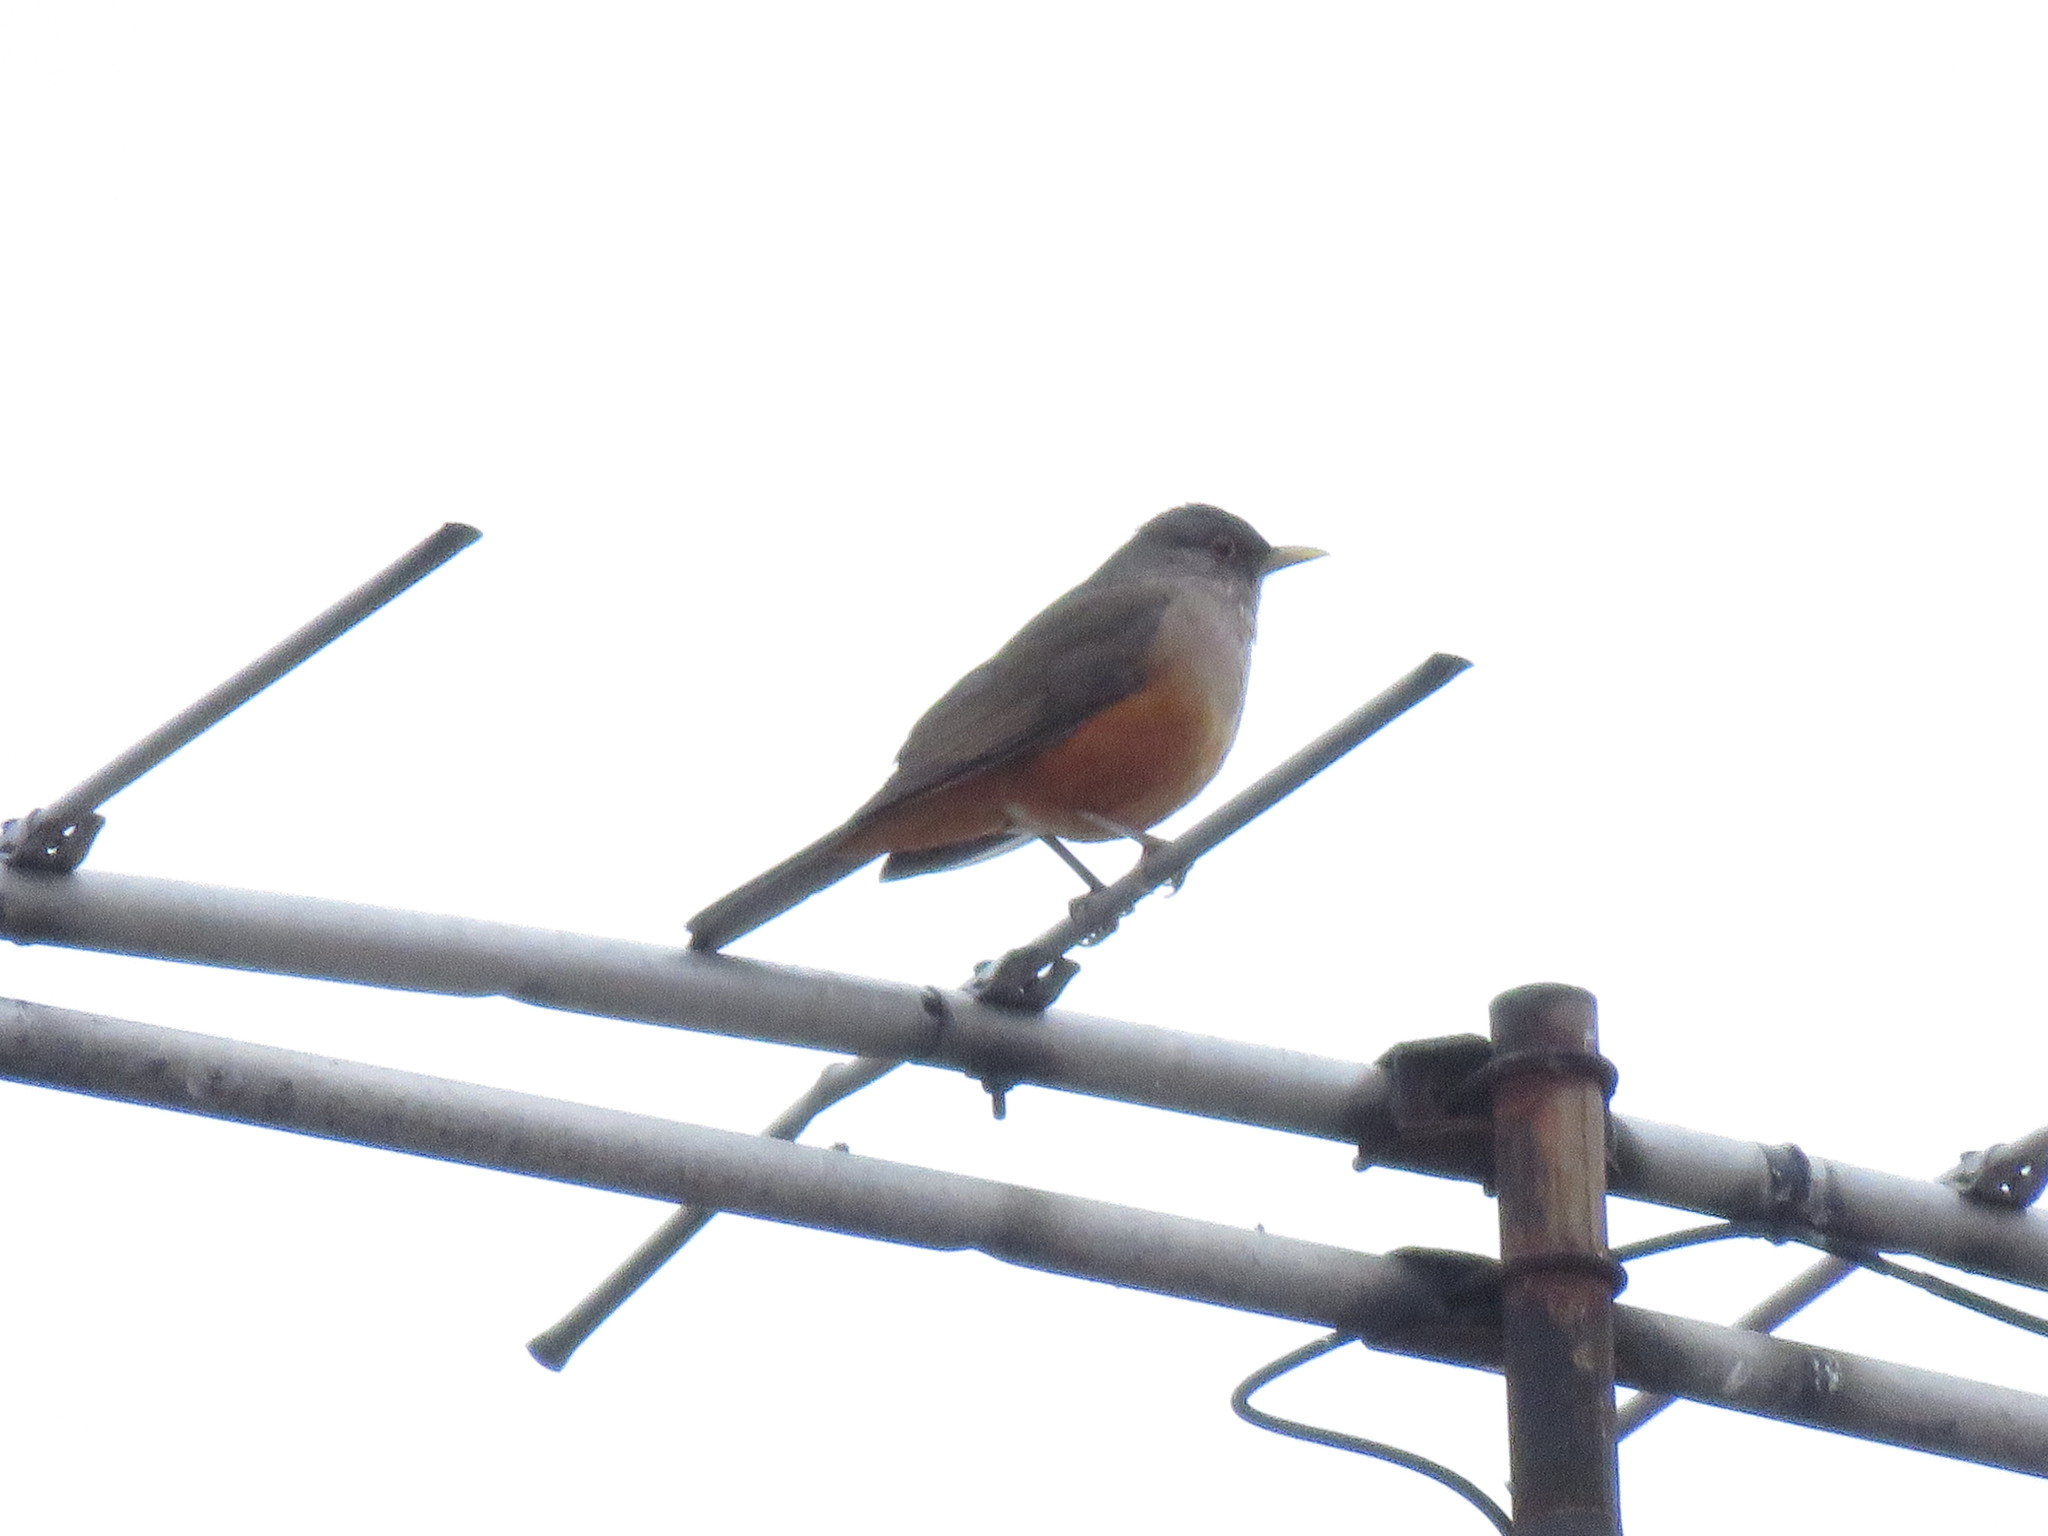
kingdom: Animalia
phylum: Chordata
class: Aves
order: Passeriformes
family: Turdidae
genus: Turdus
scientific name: Turdus rufiventris
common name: Rufous-bellied thrush
